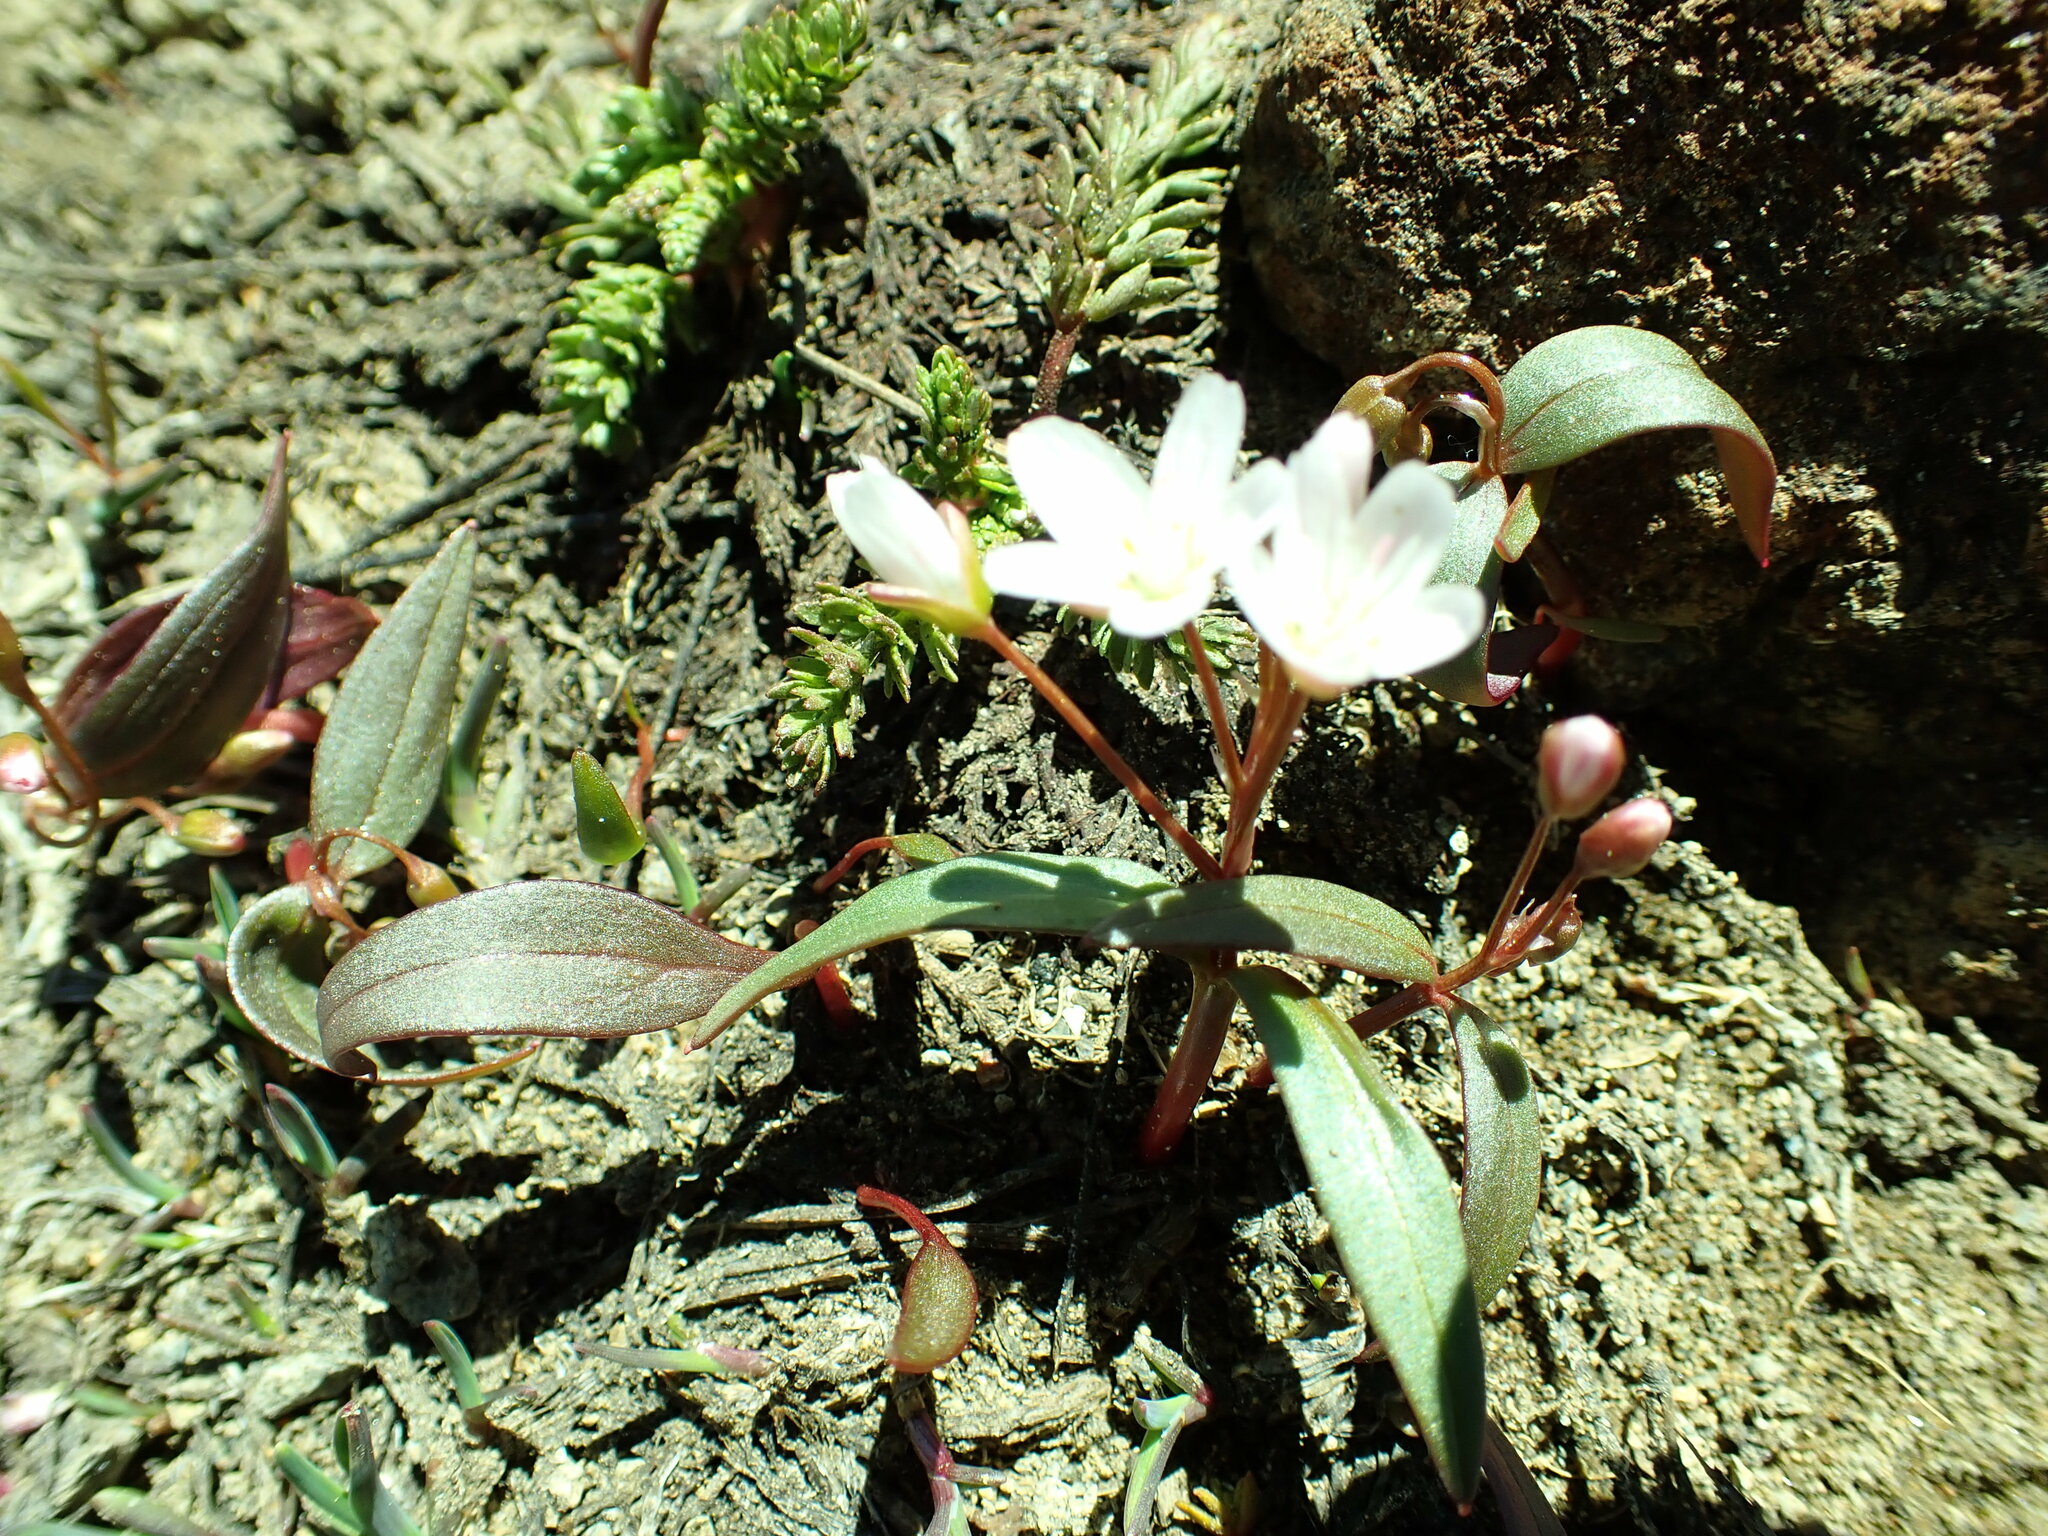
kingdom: Plantae
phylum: Tracheophyta
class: Magnoliopsida
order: Caryophyllales
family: Montiaceae
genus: Claytonia
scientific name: Claytonia lanceolata
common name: Western spring-beauty
